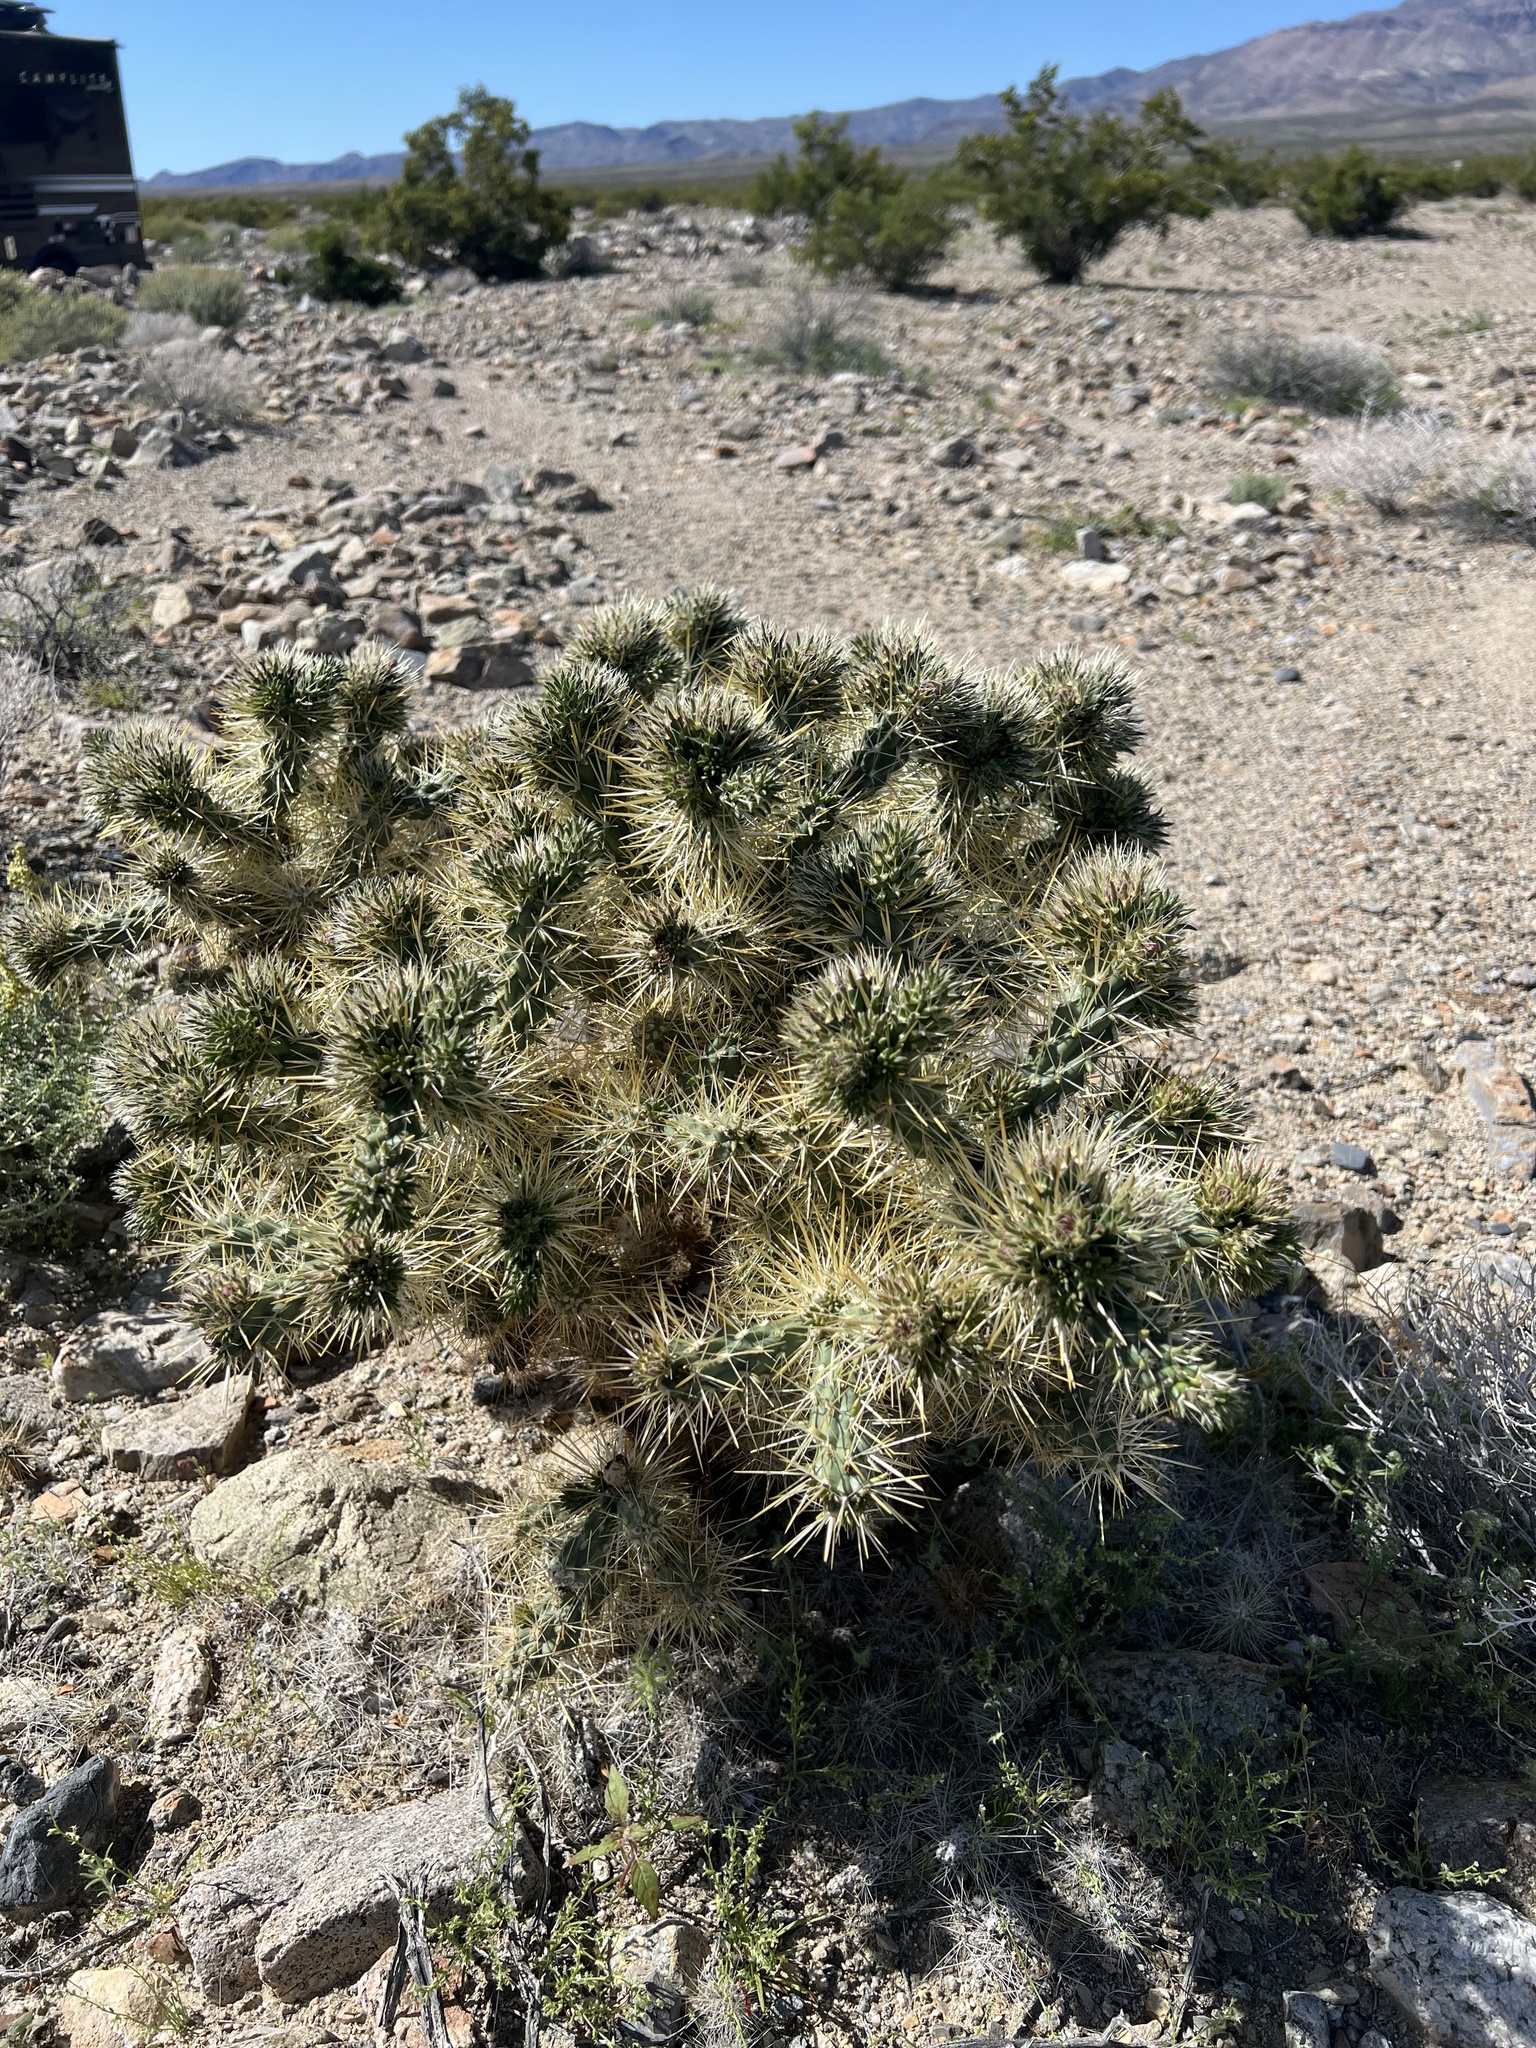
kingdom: Plantae
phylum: Tracheophyta
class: Magnoliopsida
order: Caryophyllales
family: Cactaceae
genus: Cylindropuntia
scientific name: Cylindropuntia echinocarpa
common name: Ground cholla
